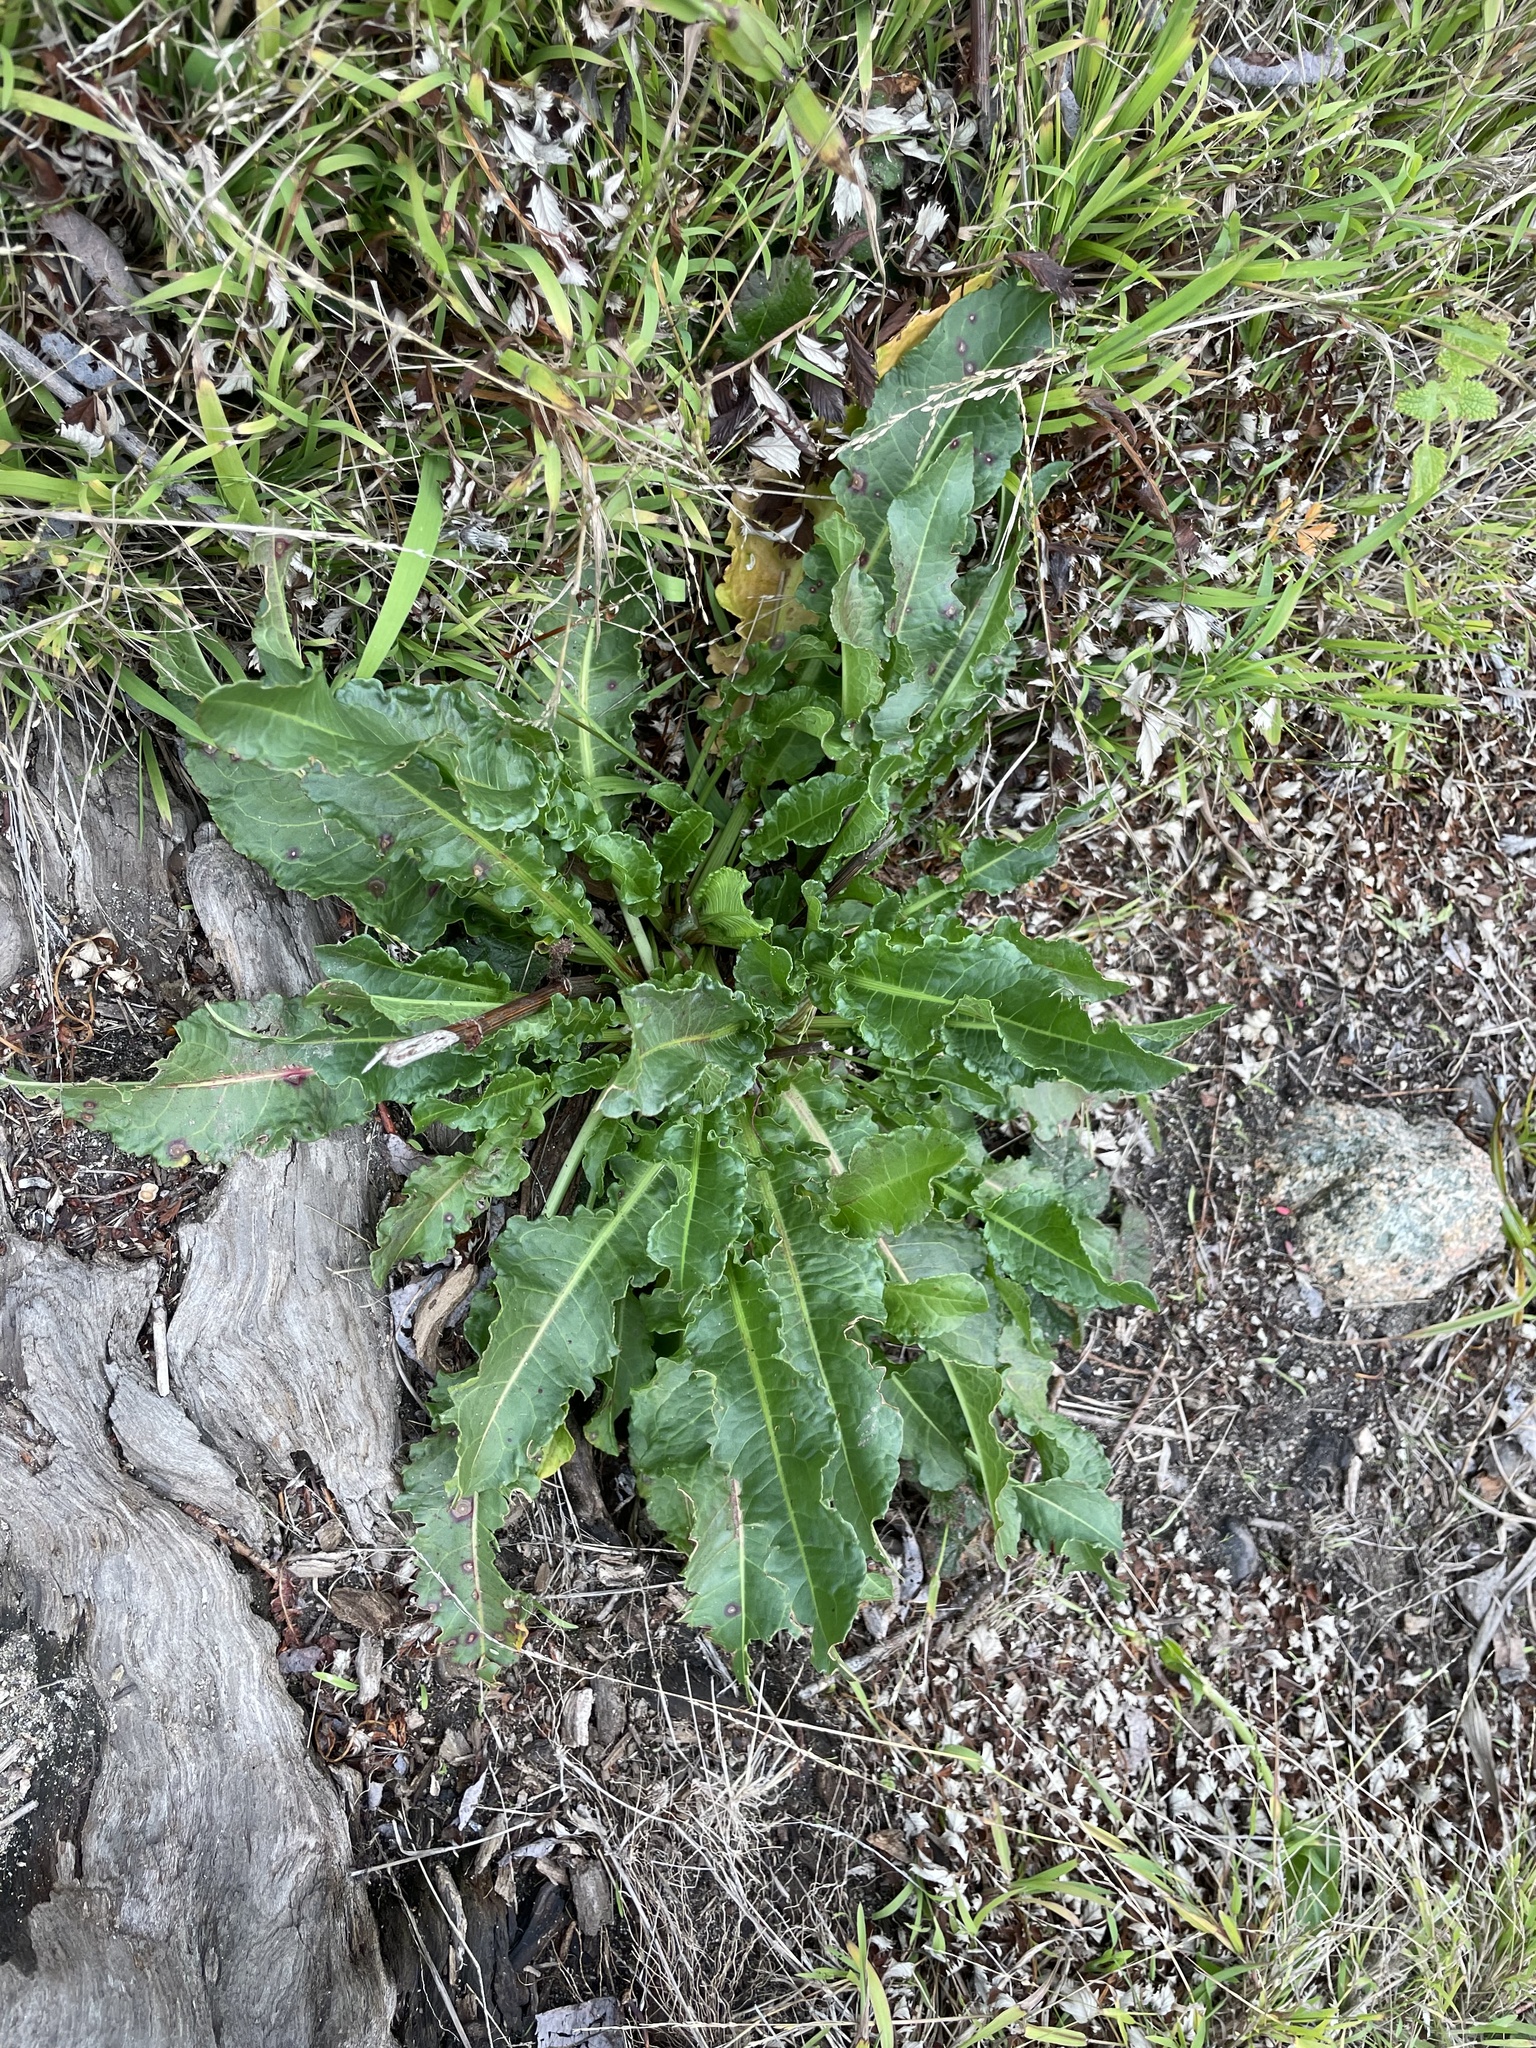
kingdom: Plantae
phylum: Tracheophyta
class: Magnoliopsida
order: Caryophyllales
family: Polygonaceae
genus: Rumex
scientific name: Rumex crispus
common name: Curled dock
